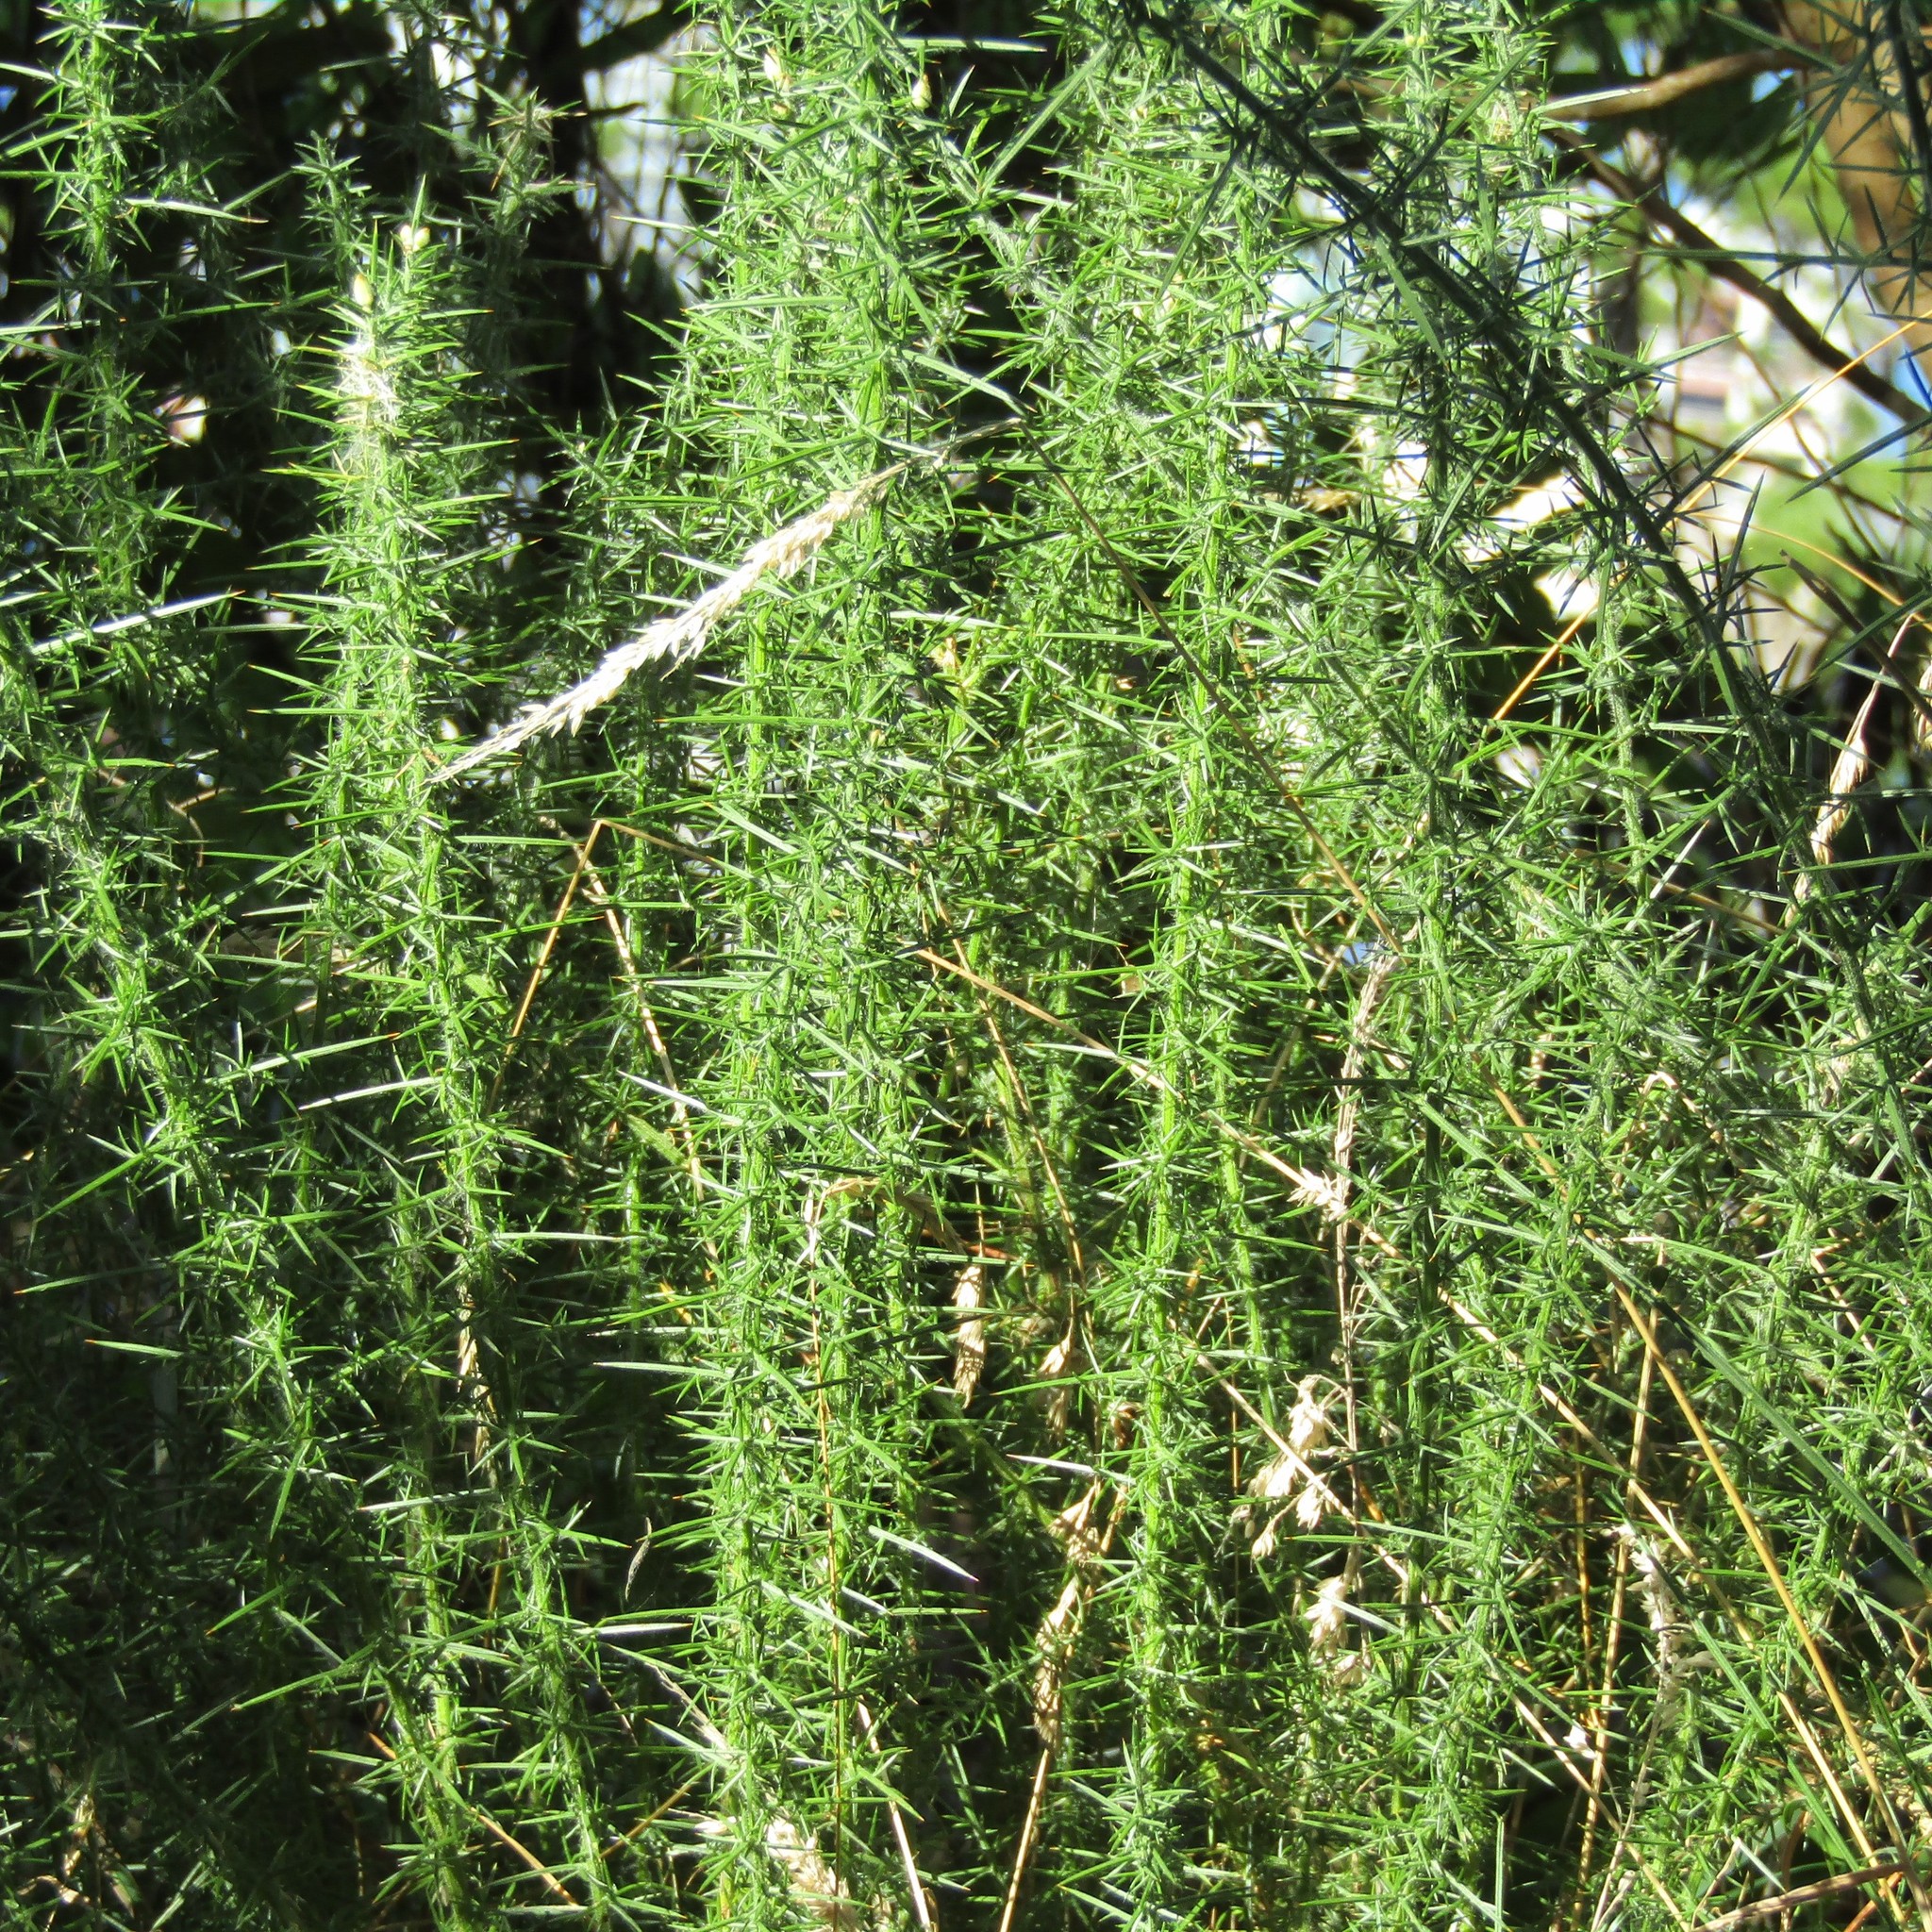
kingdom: Plantae
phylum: Tracheophyta
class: Magnoliopsida
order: Fabales
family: Fabaceae
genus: Ulex
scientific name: Ulex europaeus
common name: Common gorse
